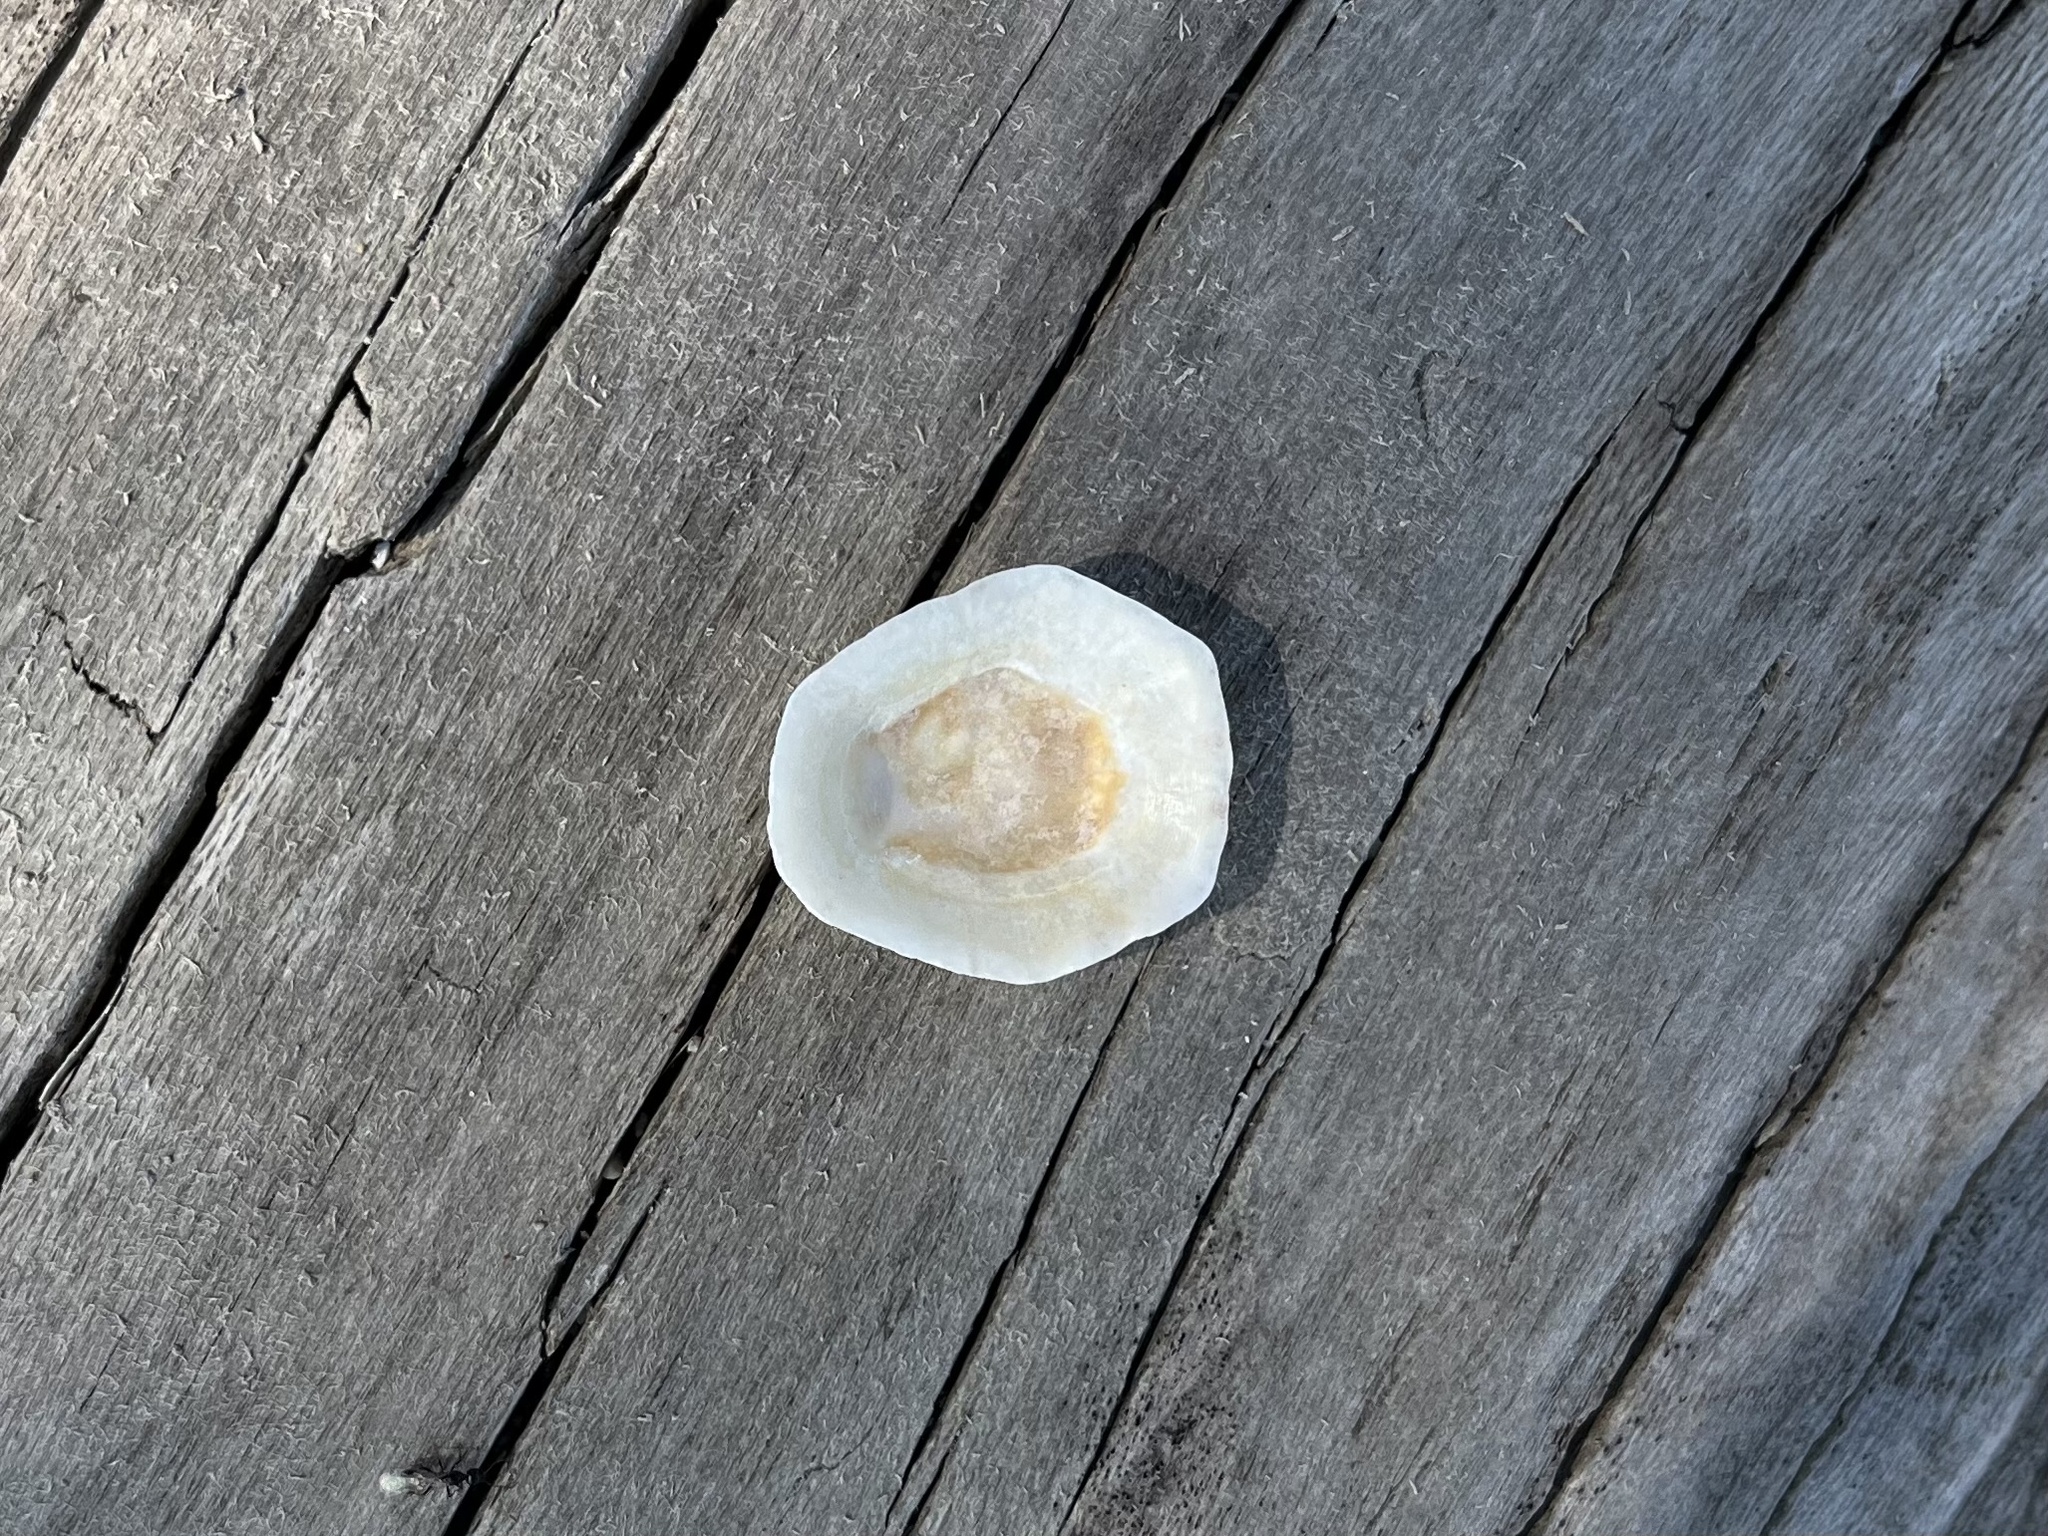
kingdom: Animalia
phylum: Mollusca
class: Gastropoda
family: Patellidae
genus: Patella
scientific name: Patella caerulea
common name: Mediterranean limpet
